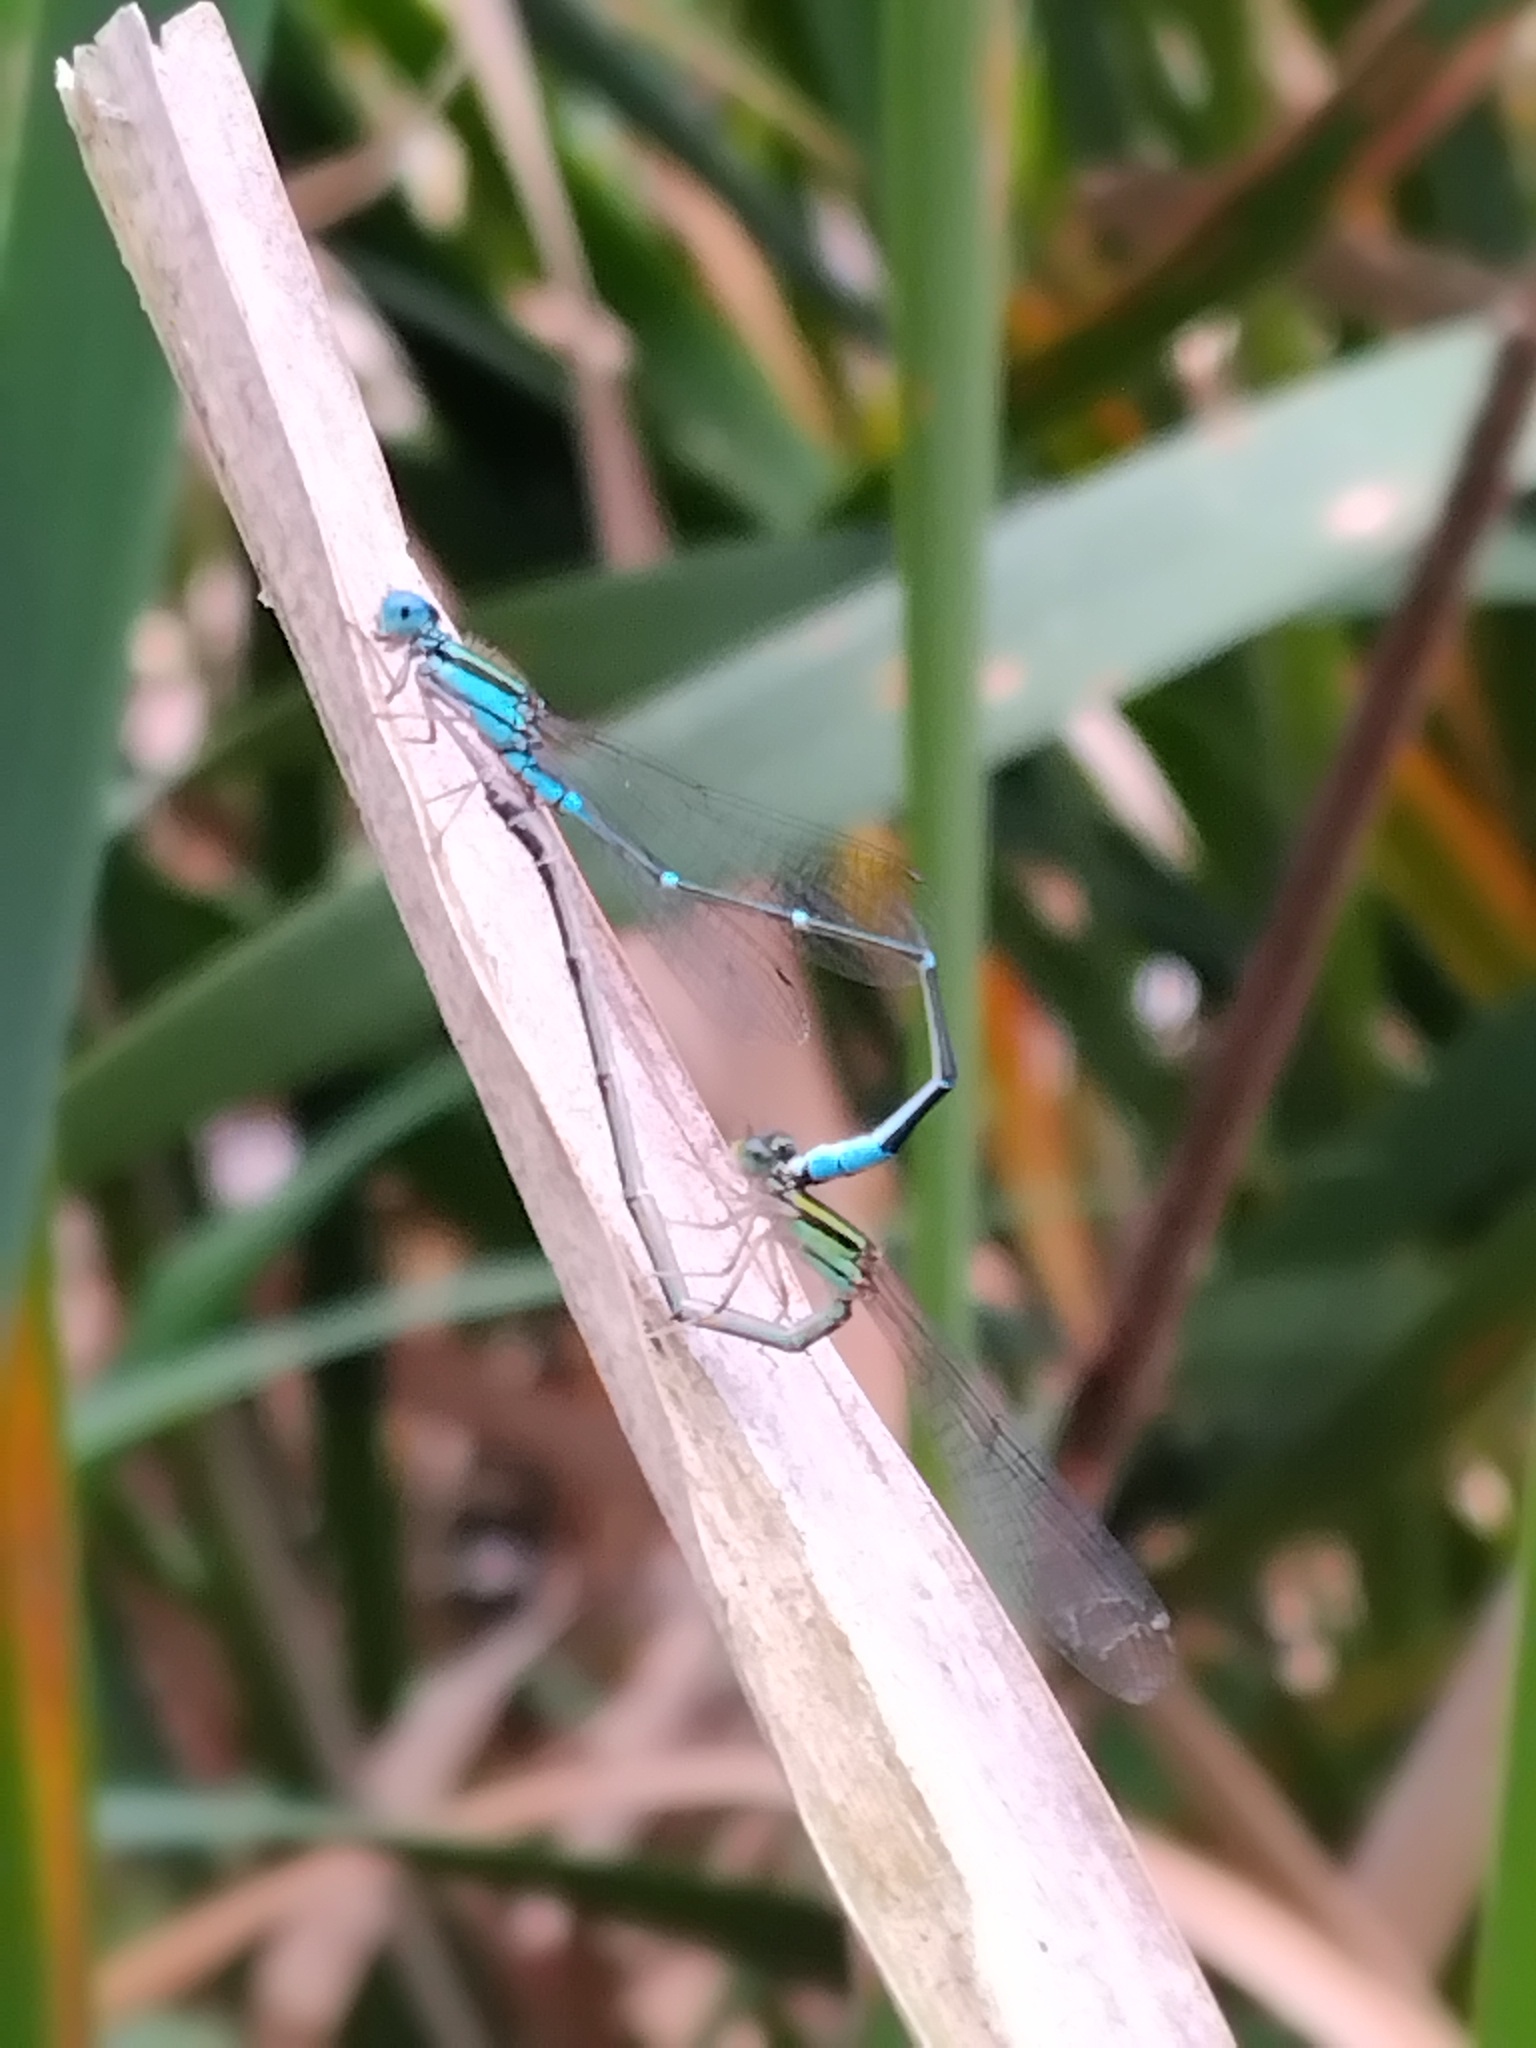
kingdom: Animalia
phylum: Arthropoda
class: Insecta
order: Odonata
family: Coenagrionidae
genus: Austroagrion
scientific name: Austroagrion watsoni
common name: Eastern billabongfly
